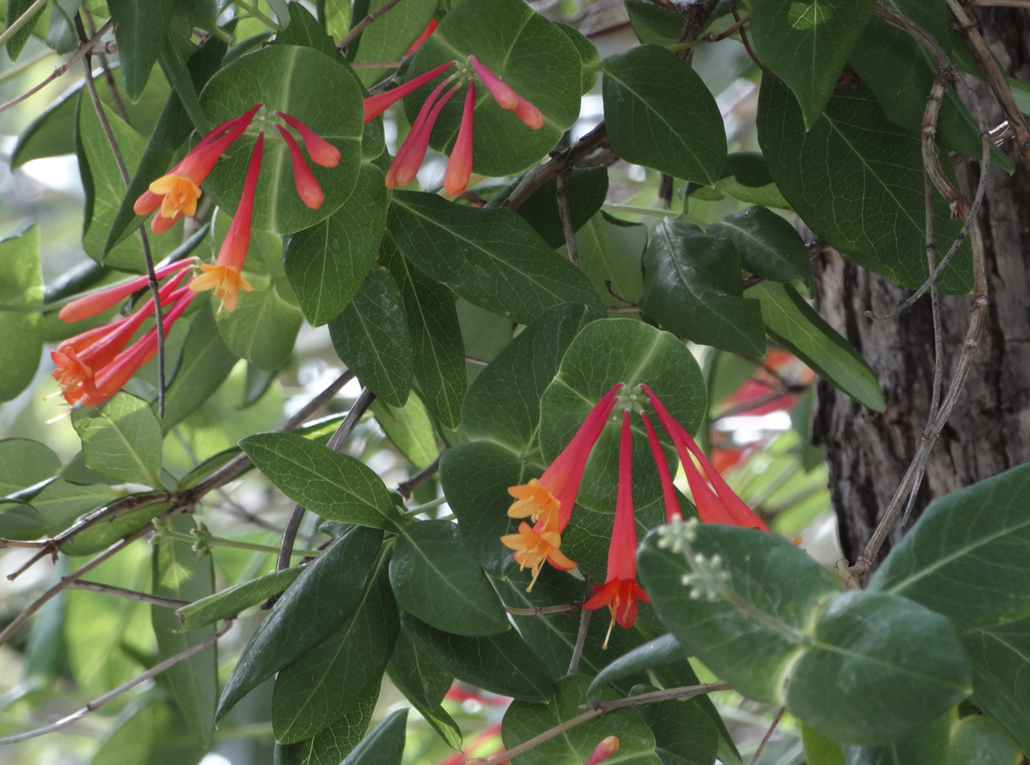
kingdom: Plantae
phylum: Tracheophyta
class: Magnoliopsida
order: Dipsacales
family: Caprifoliaceae
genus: Lonicera
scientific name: Lonicera arizonica
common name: Arizona honeysuckle
